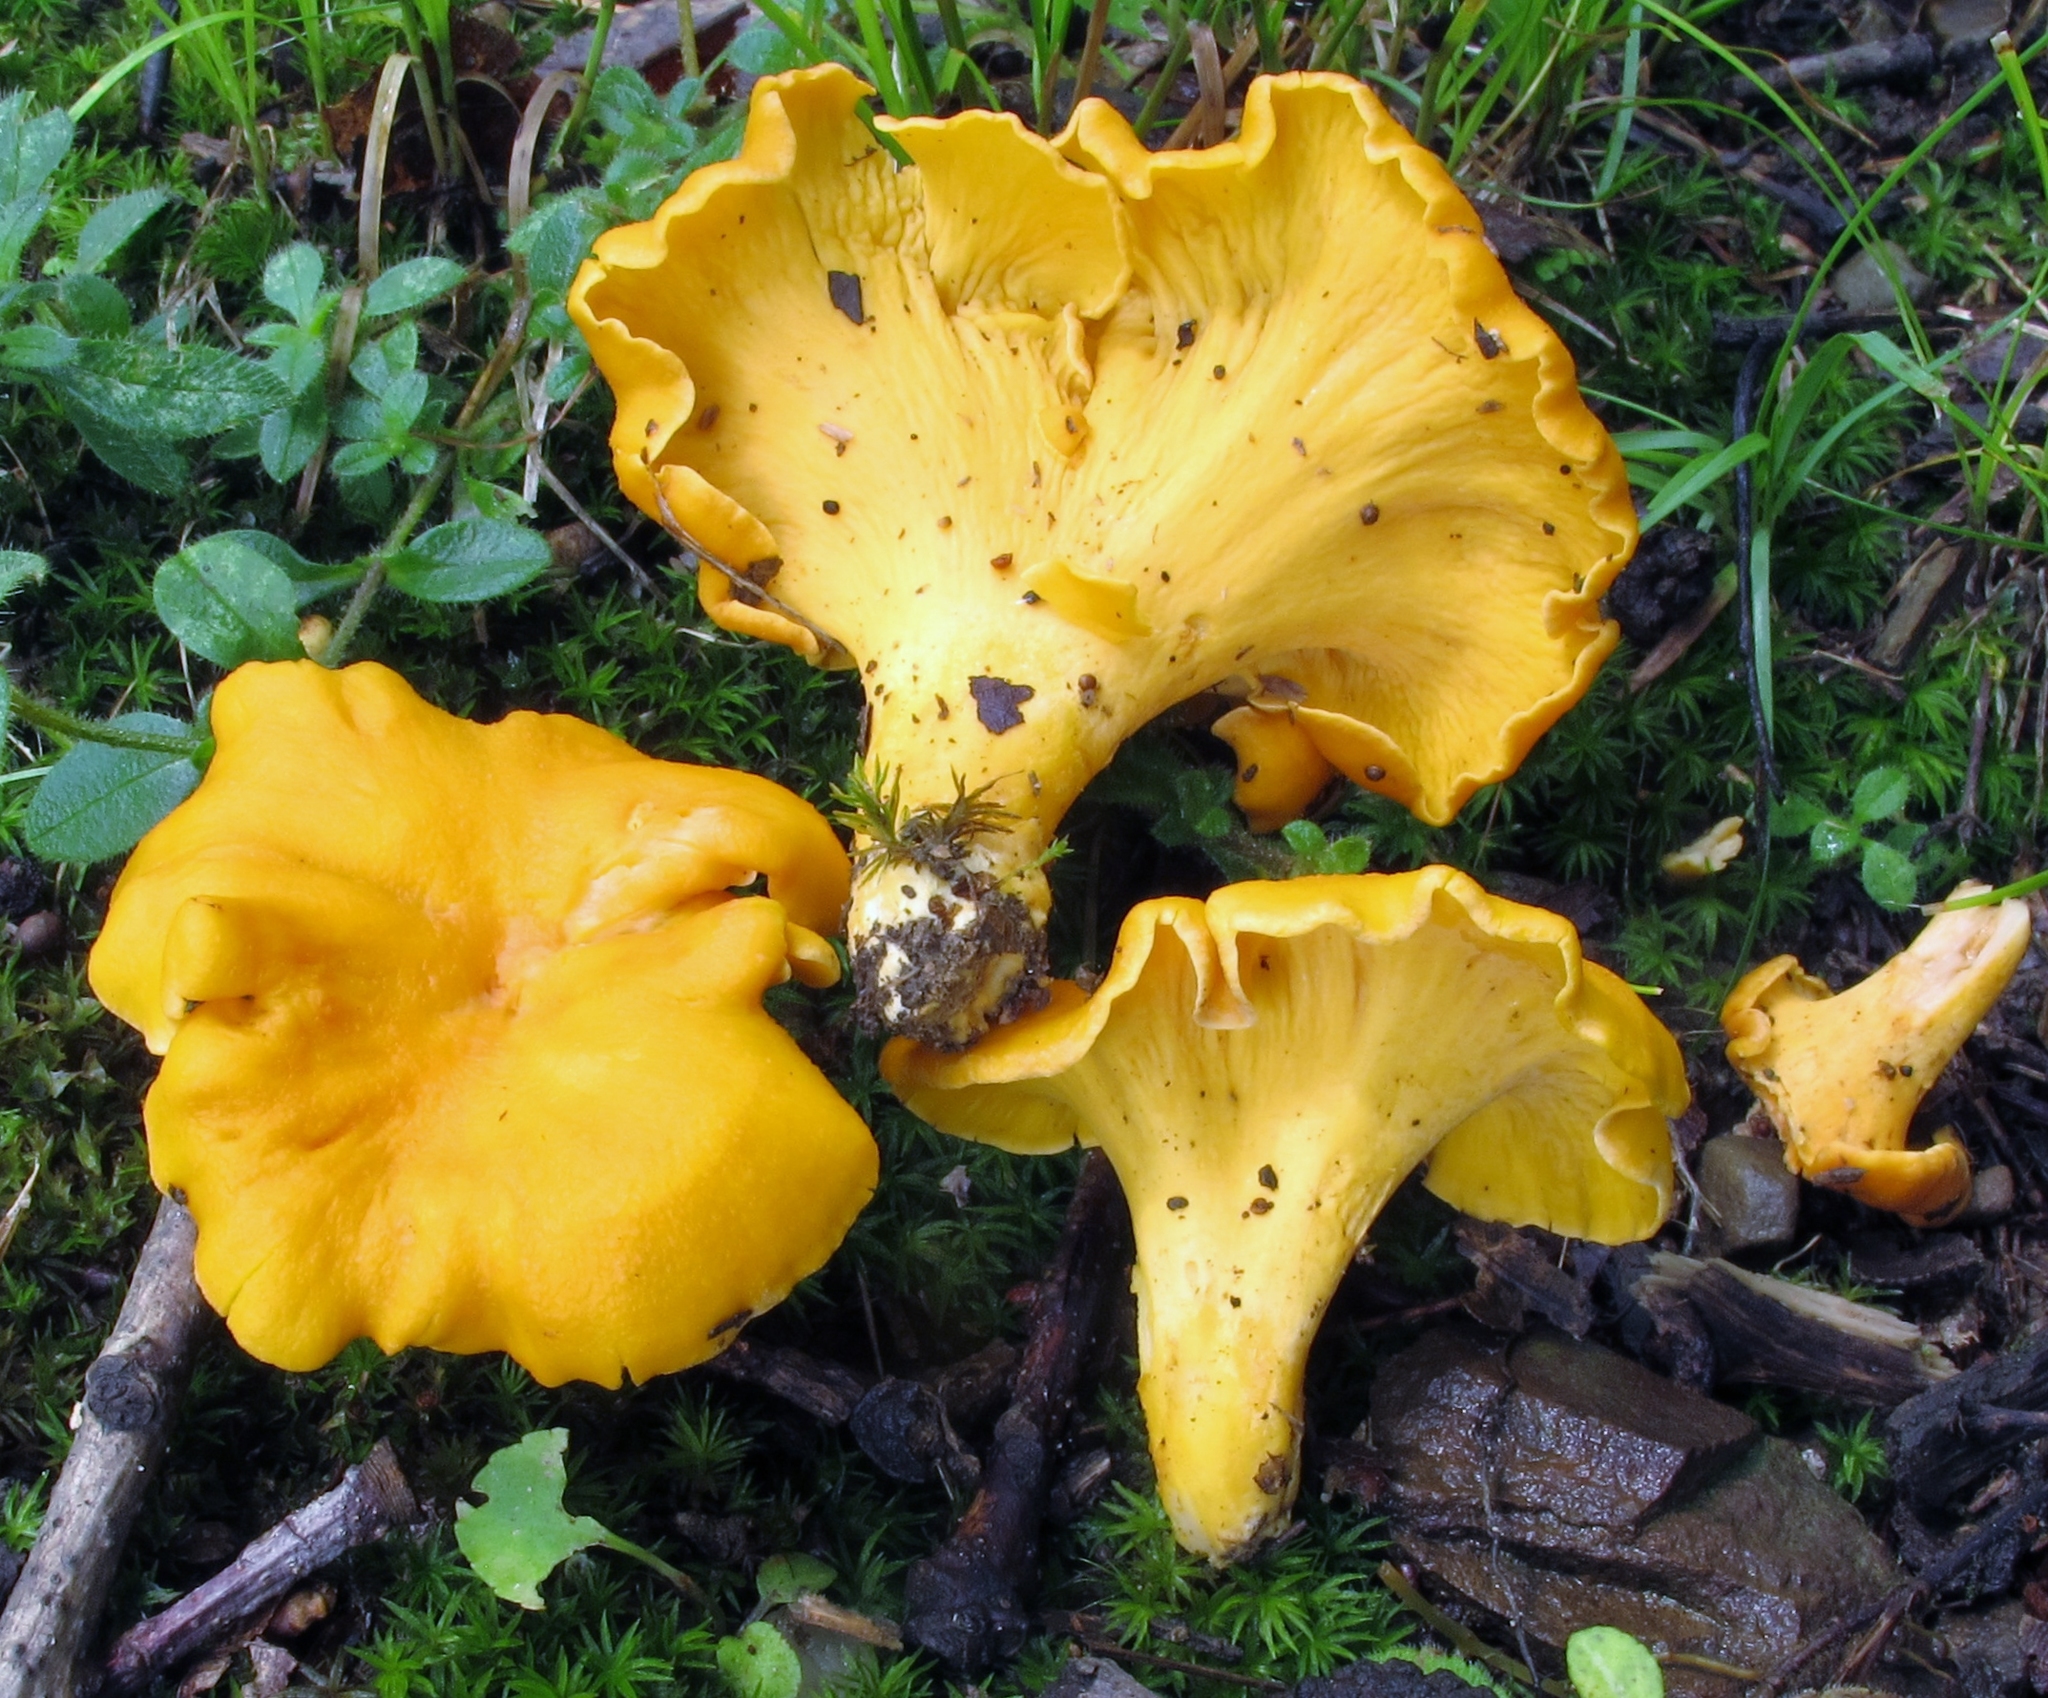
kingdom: Fungi
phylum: Basidiomycota
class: Agaricomycetes
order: Cantharellales
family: Hydnaceae
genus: Cantharellus
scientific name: Cantharellus lateritius
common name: Smooth chanterelle
